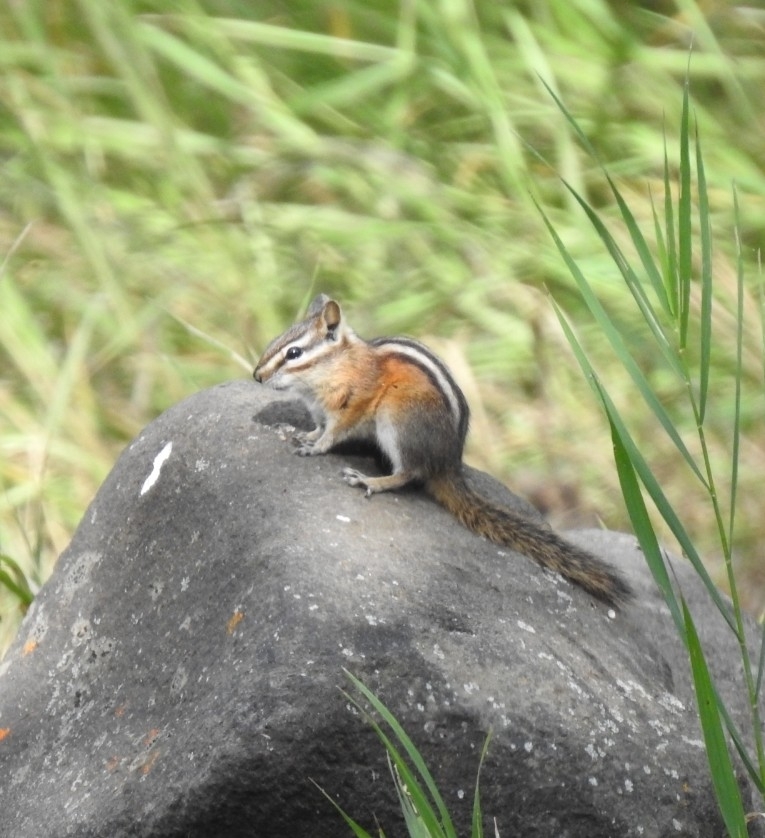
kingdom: Animalia
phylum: Chordata
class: Mammalia
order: Rodentia
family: Sciuridae
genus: Tamias
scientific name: Tamias amoenus
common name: Yellow-pine chipmunk
